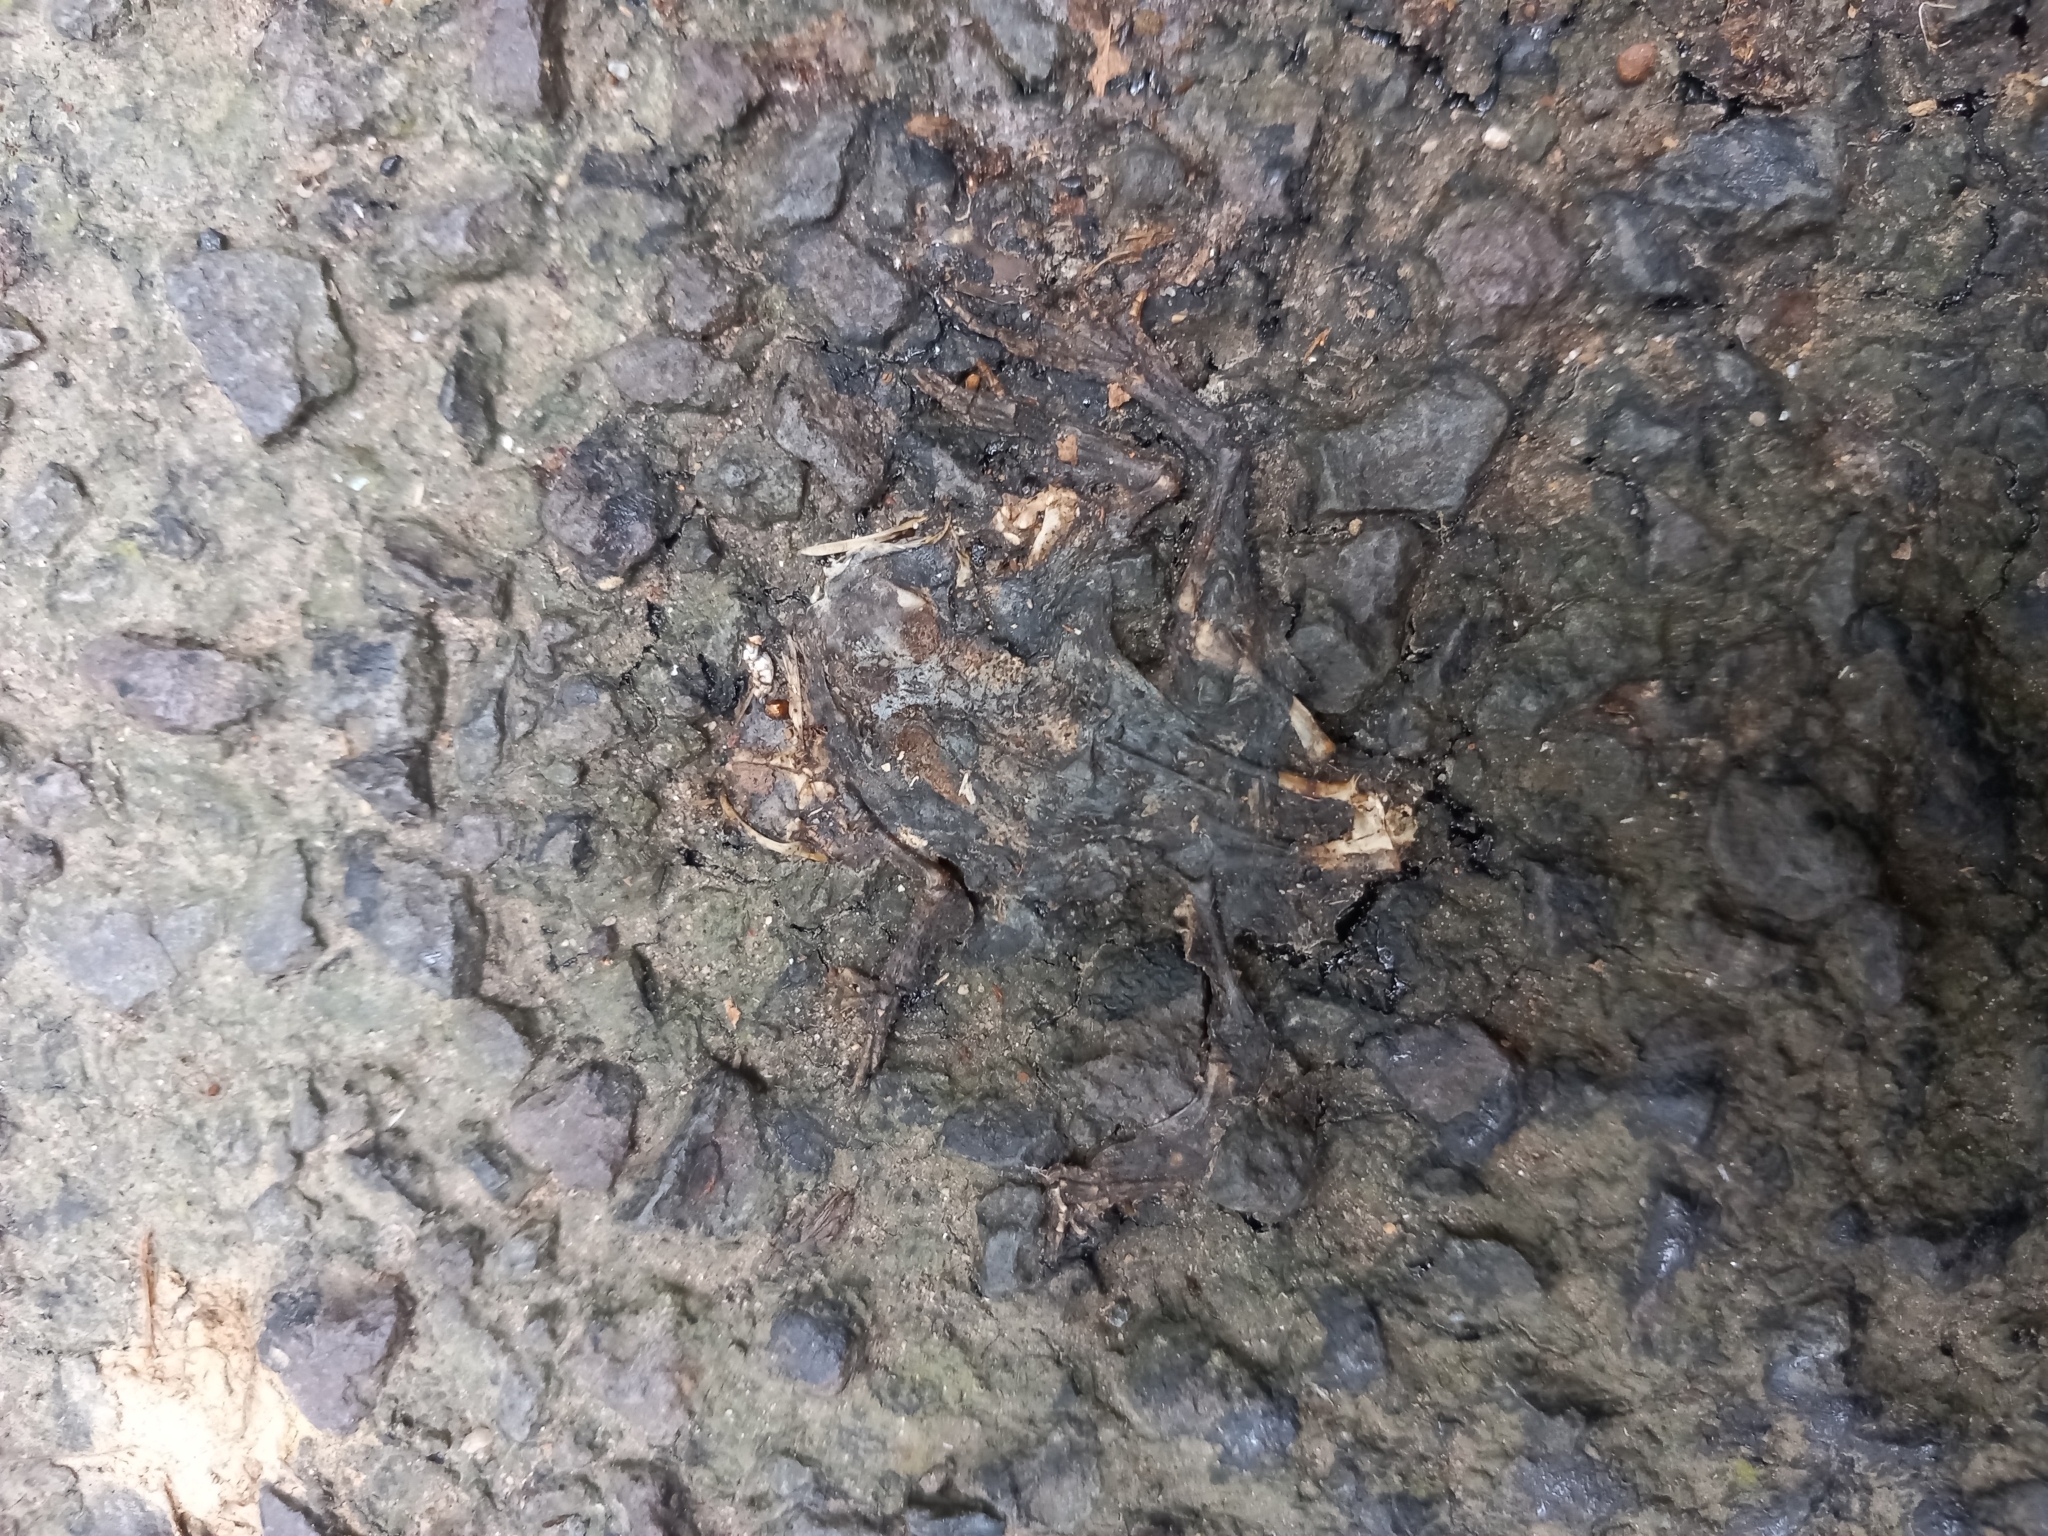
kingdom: Animalia
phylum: Chordata
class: Amphibia
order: Anura
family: Bufonidae
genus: Bufo
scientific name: Bufo bufo
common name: Common toad
